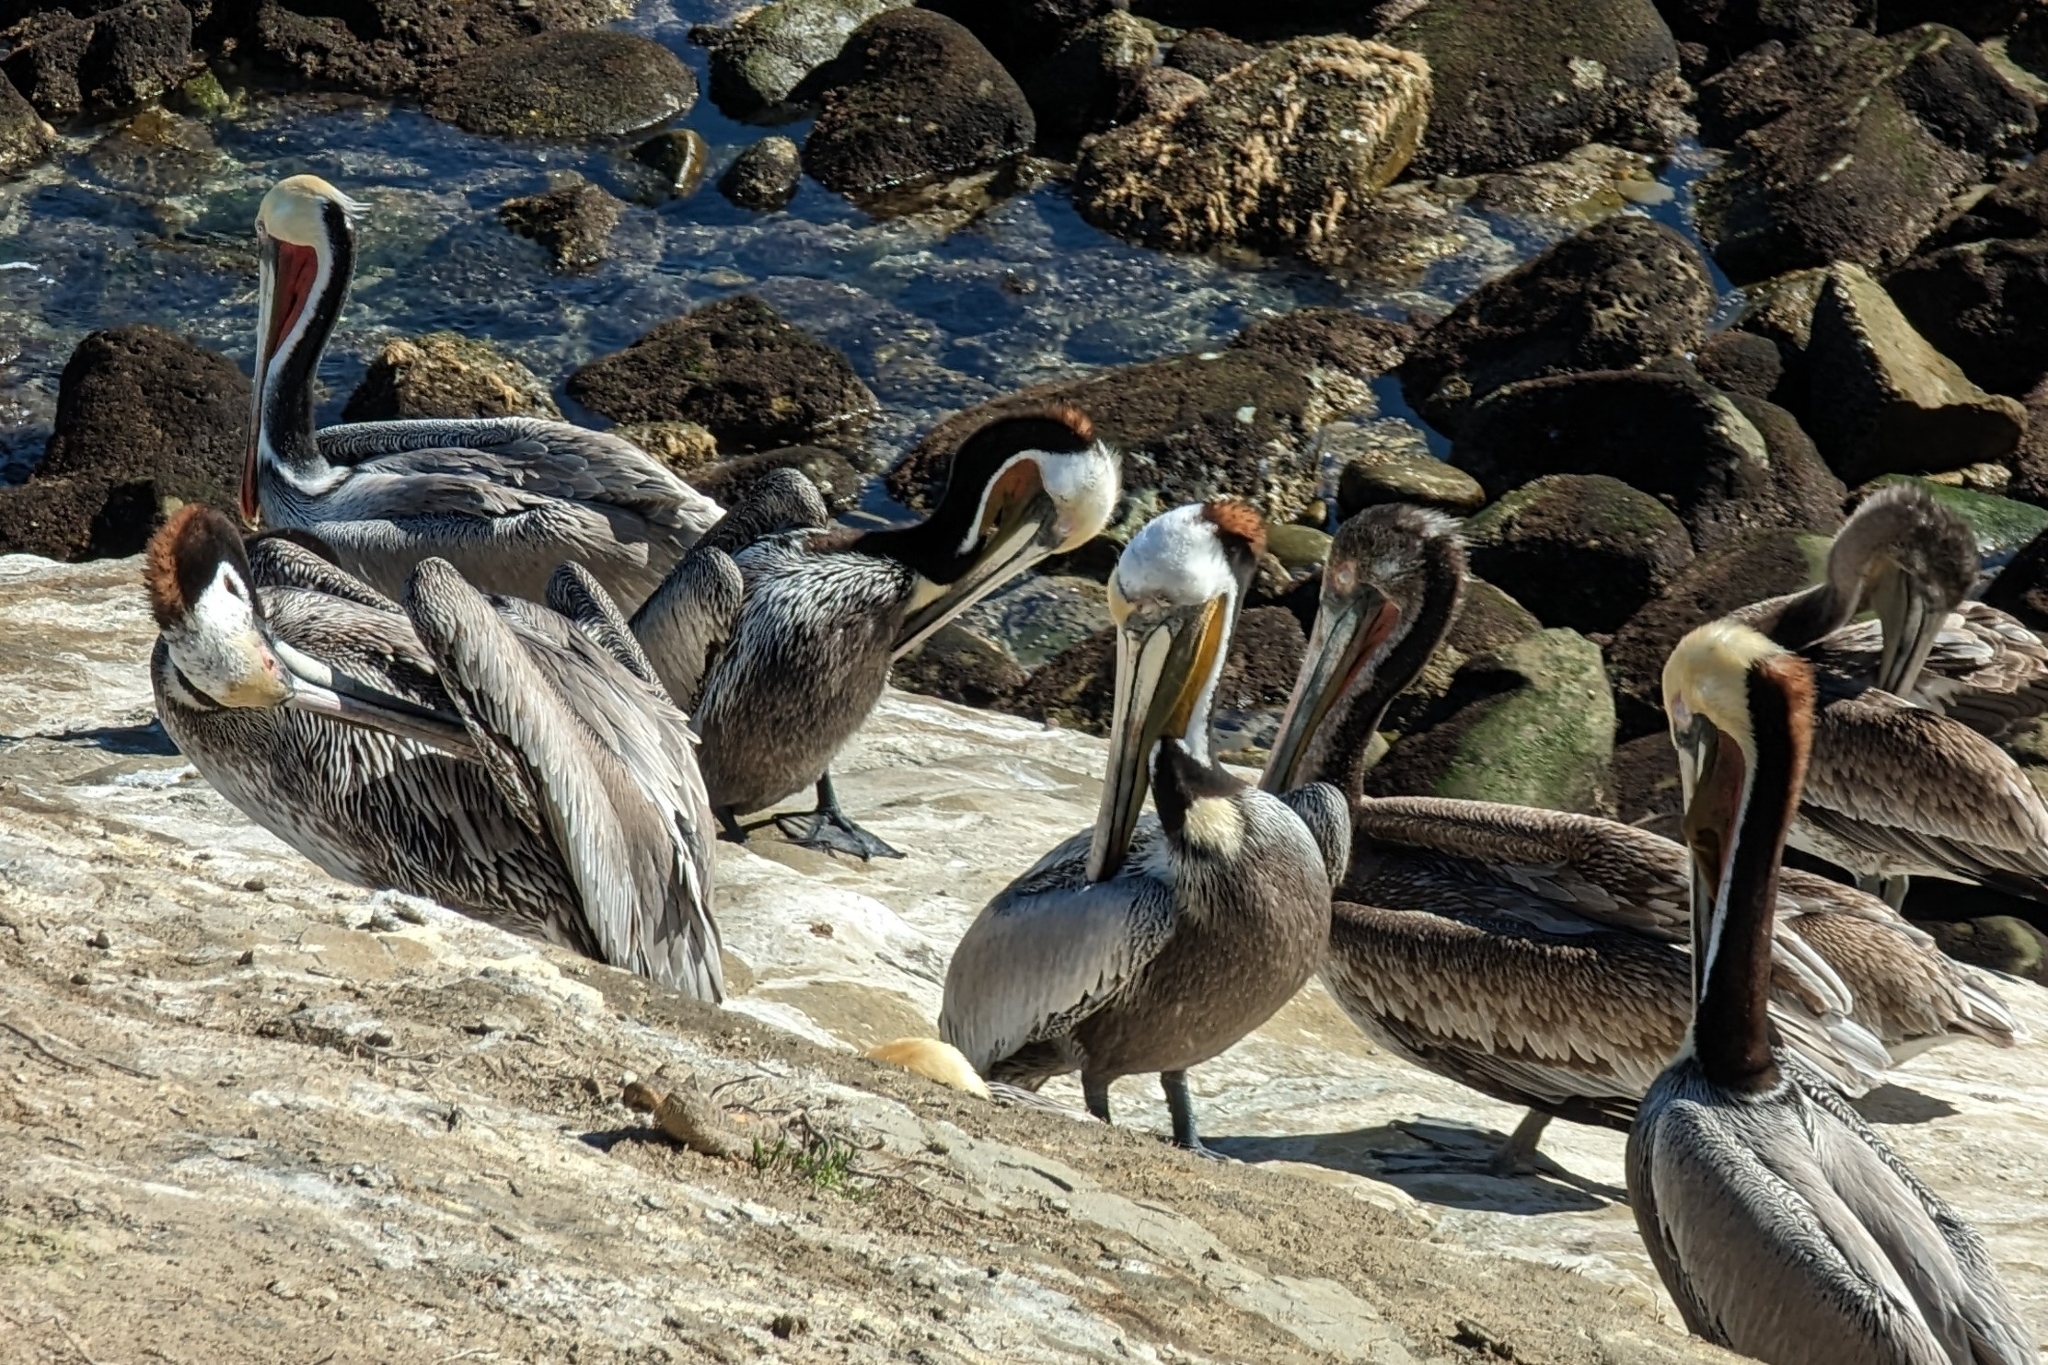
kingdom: Animalia
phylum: Chordata
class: Aves
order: Pelecaniformes
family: Pelecanidae
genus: Pelecanus
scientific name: Pelecanus occidentalis
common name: Brown pelican
